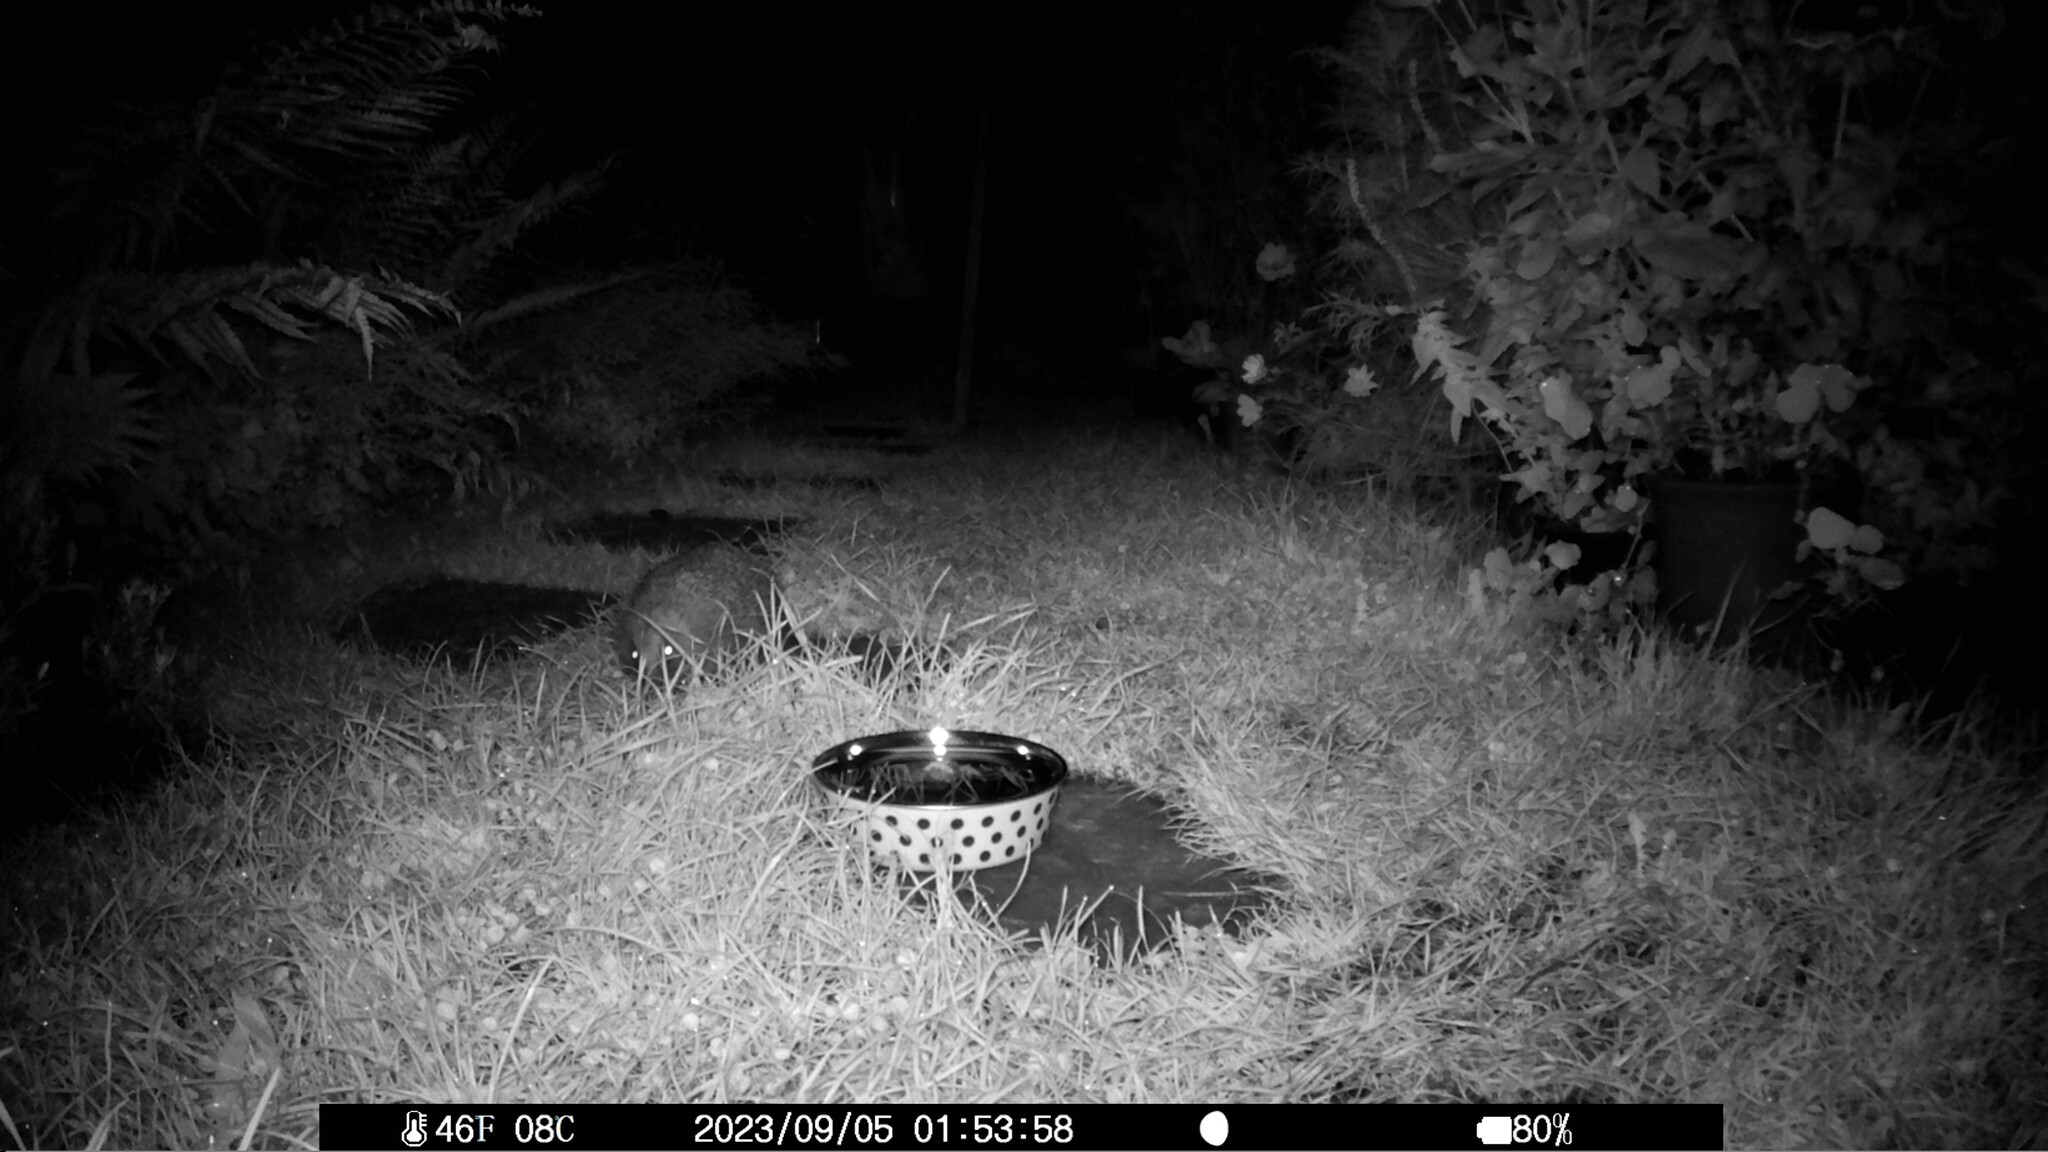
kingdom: Animalia
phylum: Chordata
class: Mammalia
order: Erinaceomorpha
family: Erinaceidae
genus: Erinaceus
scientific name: Erinaceus europaeus
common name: West european hedgehog
